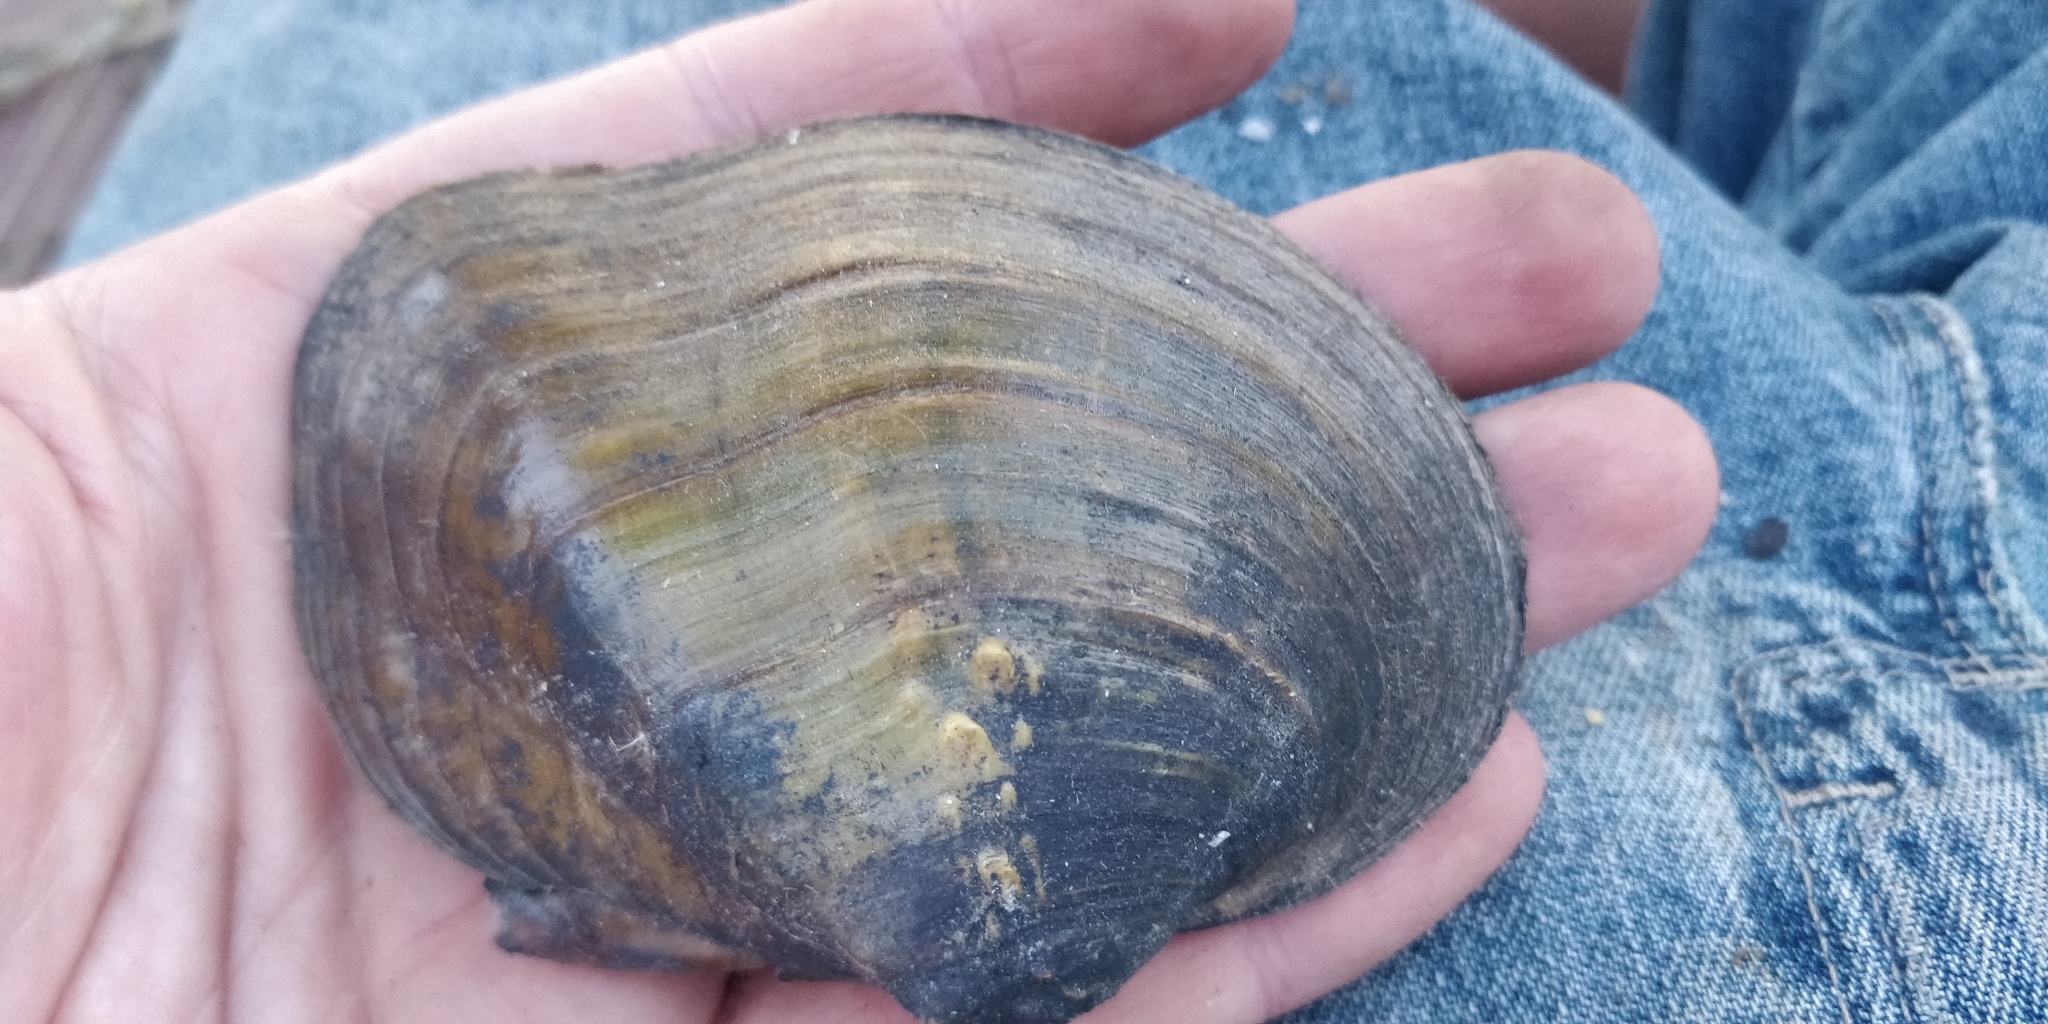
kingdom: Animalia
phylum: Mollusca
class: Bivalvia
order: Unionida
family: Unionidae
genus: Quadrula
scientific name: Quadrula quadrula
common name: Mapleleaf
